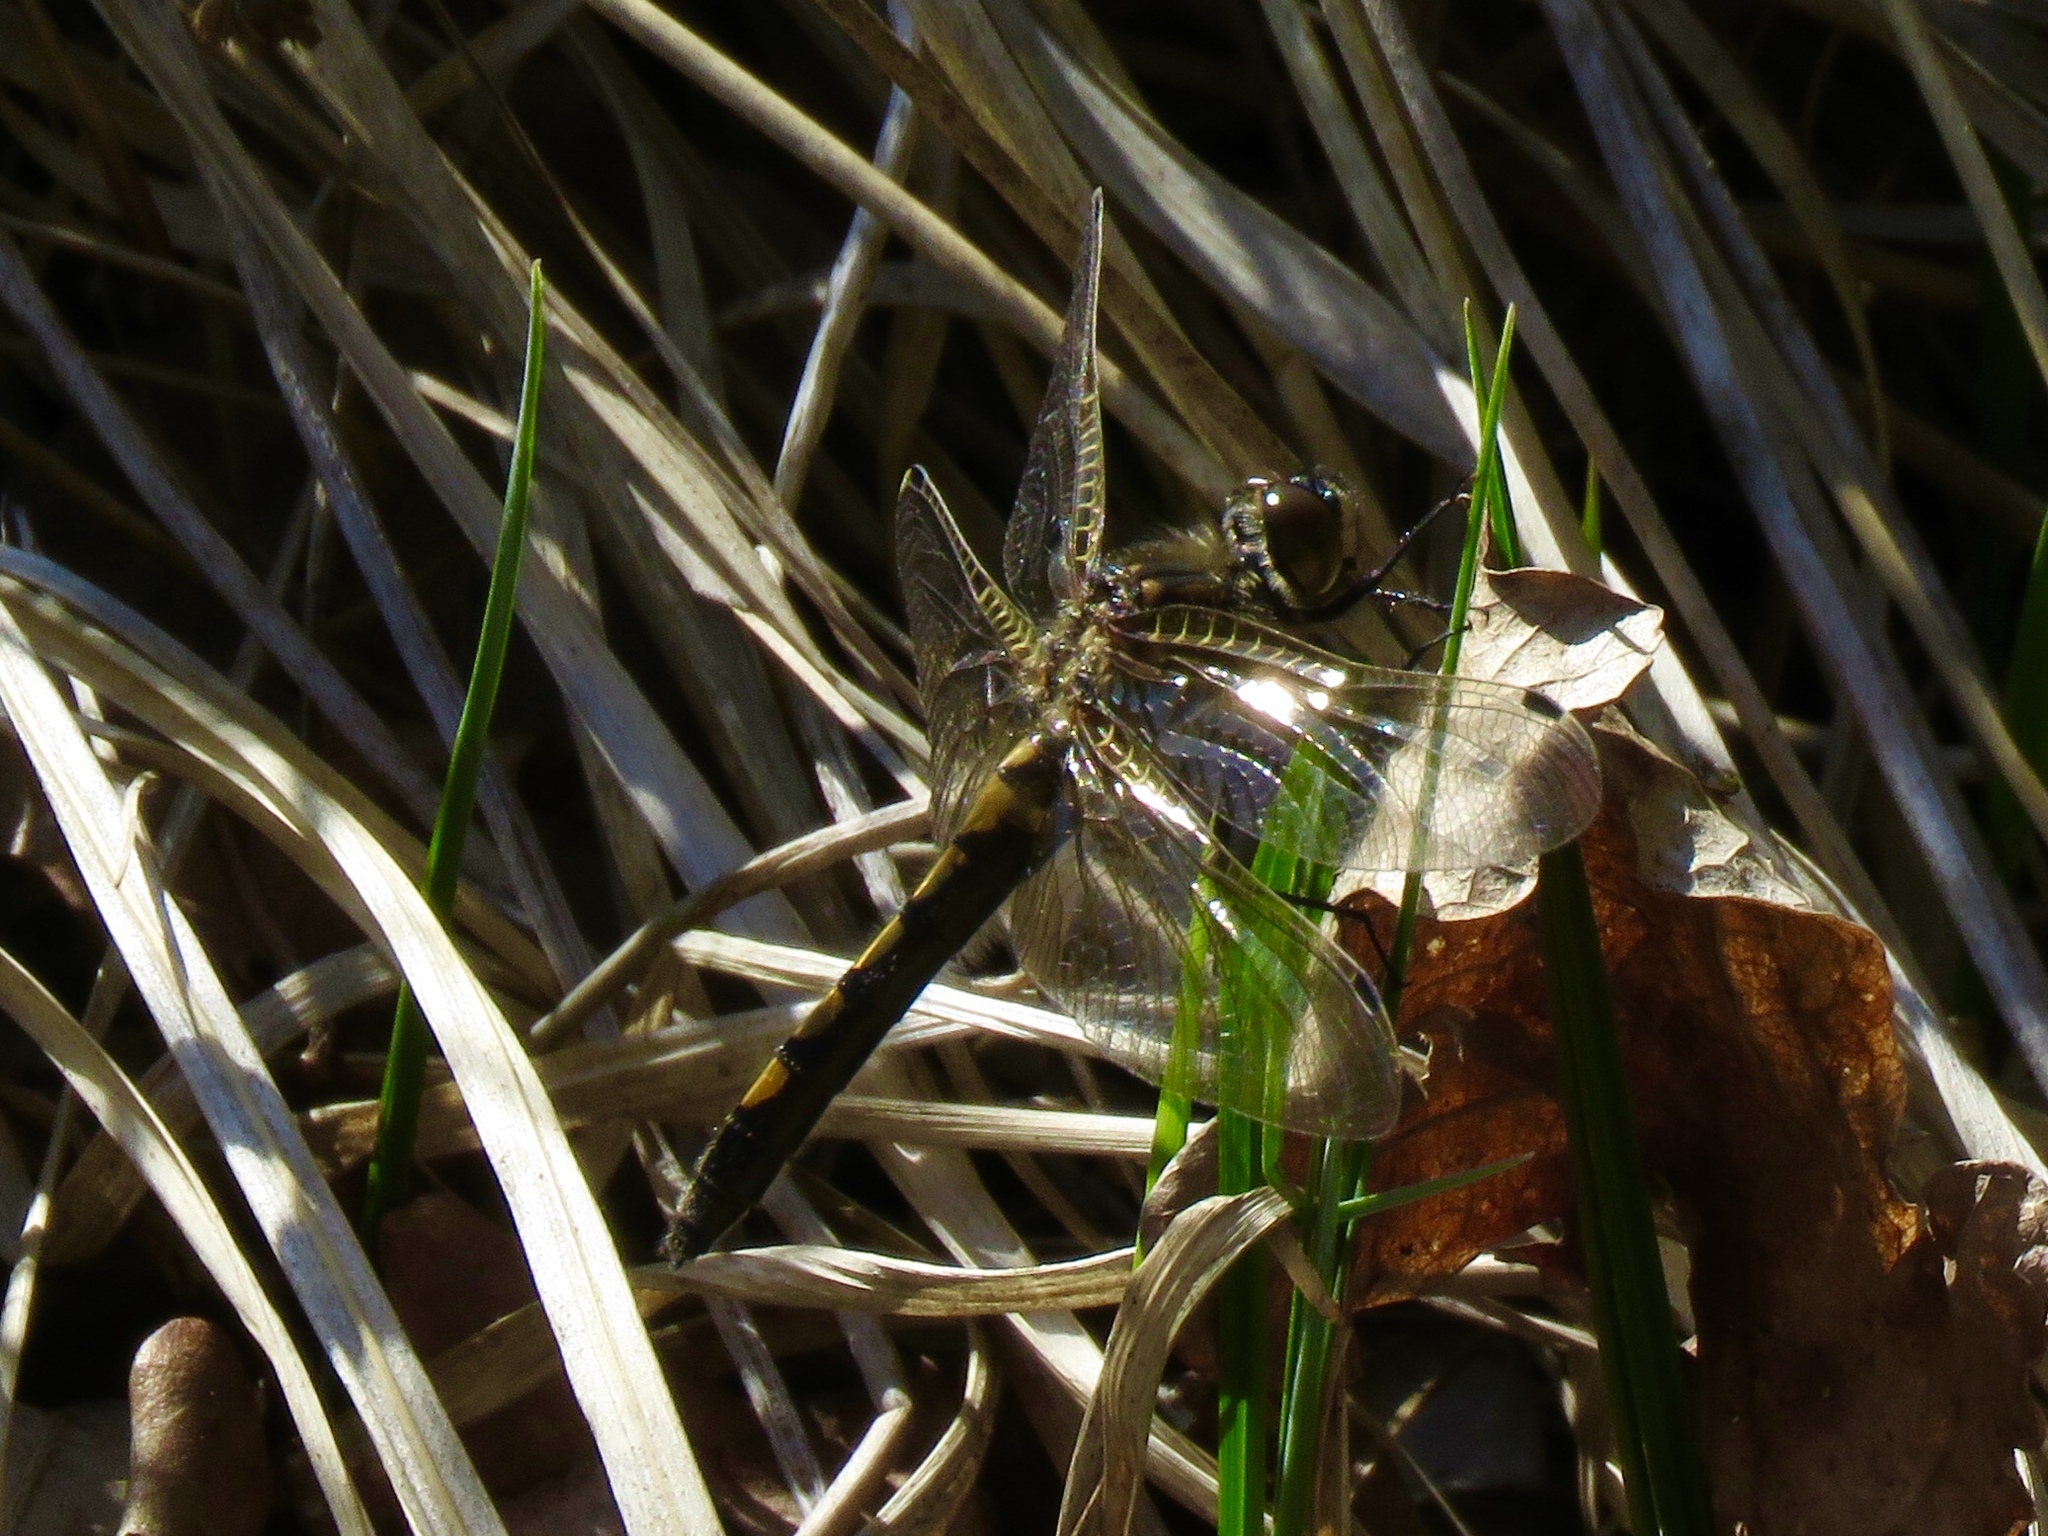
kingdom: Animalia
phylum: Arthropoda
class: Insecta
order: Odonata
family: Libellulidae
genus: Leucorrhinia
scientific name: Leucorrhinia rubicunda
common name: Ruby whiteface
